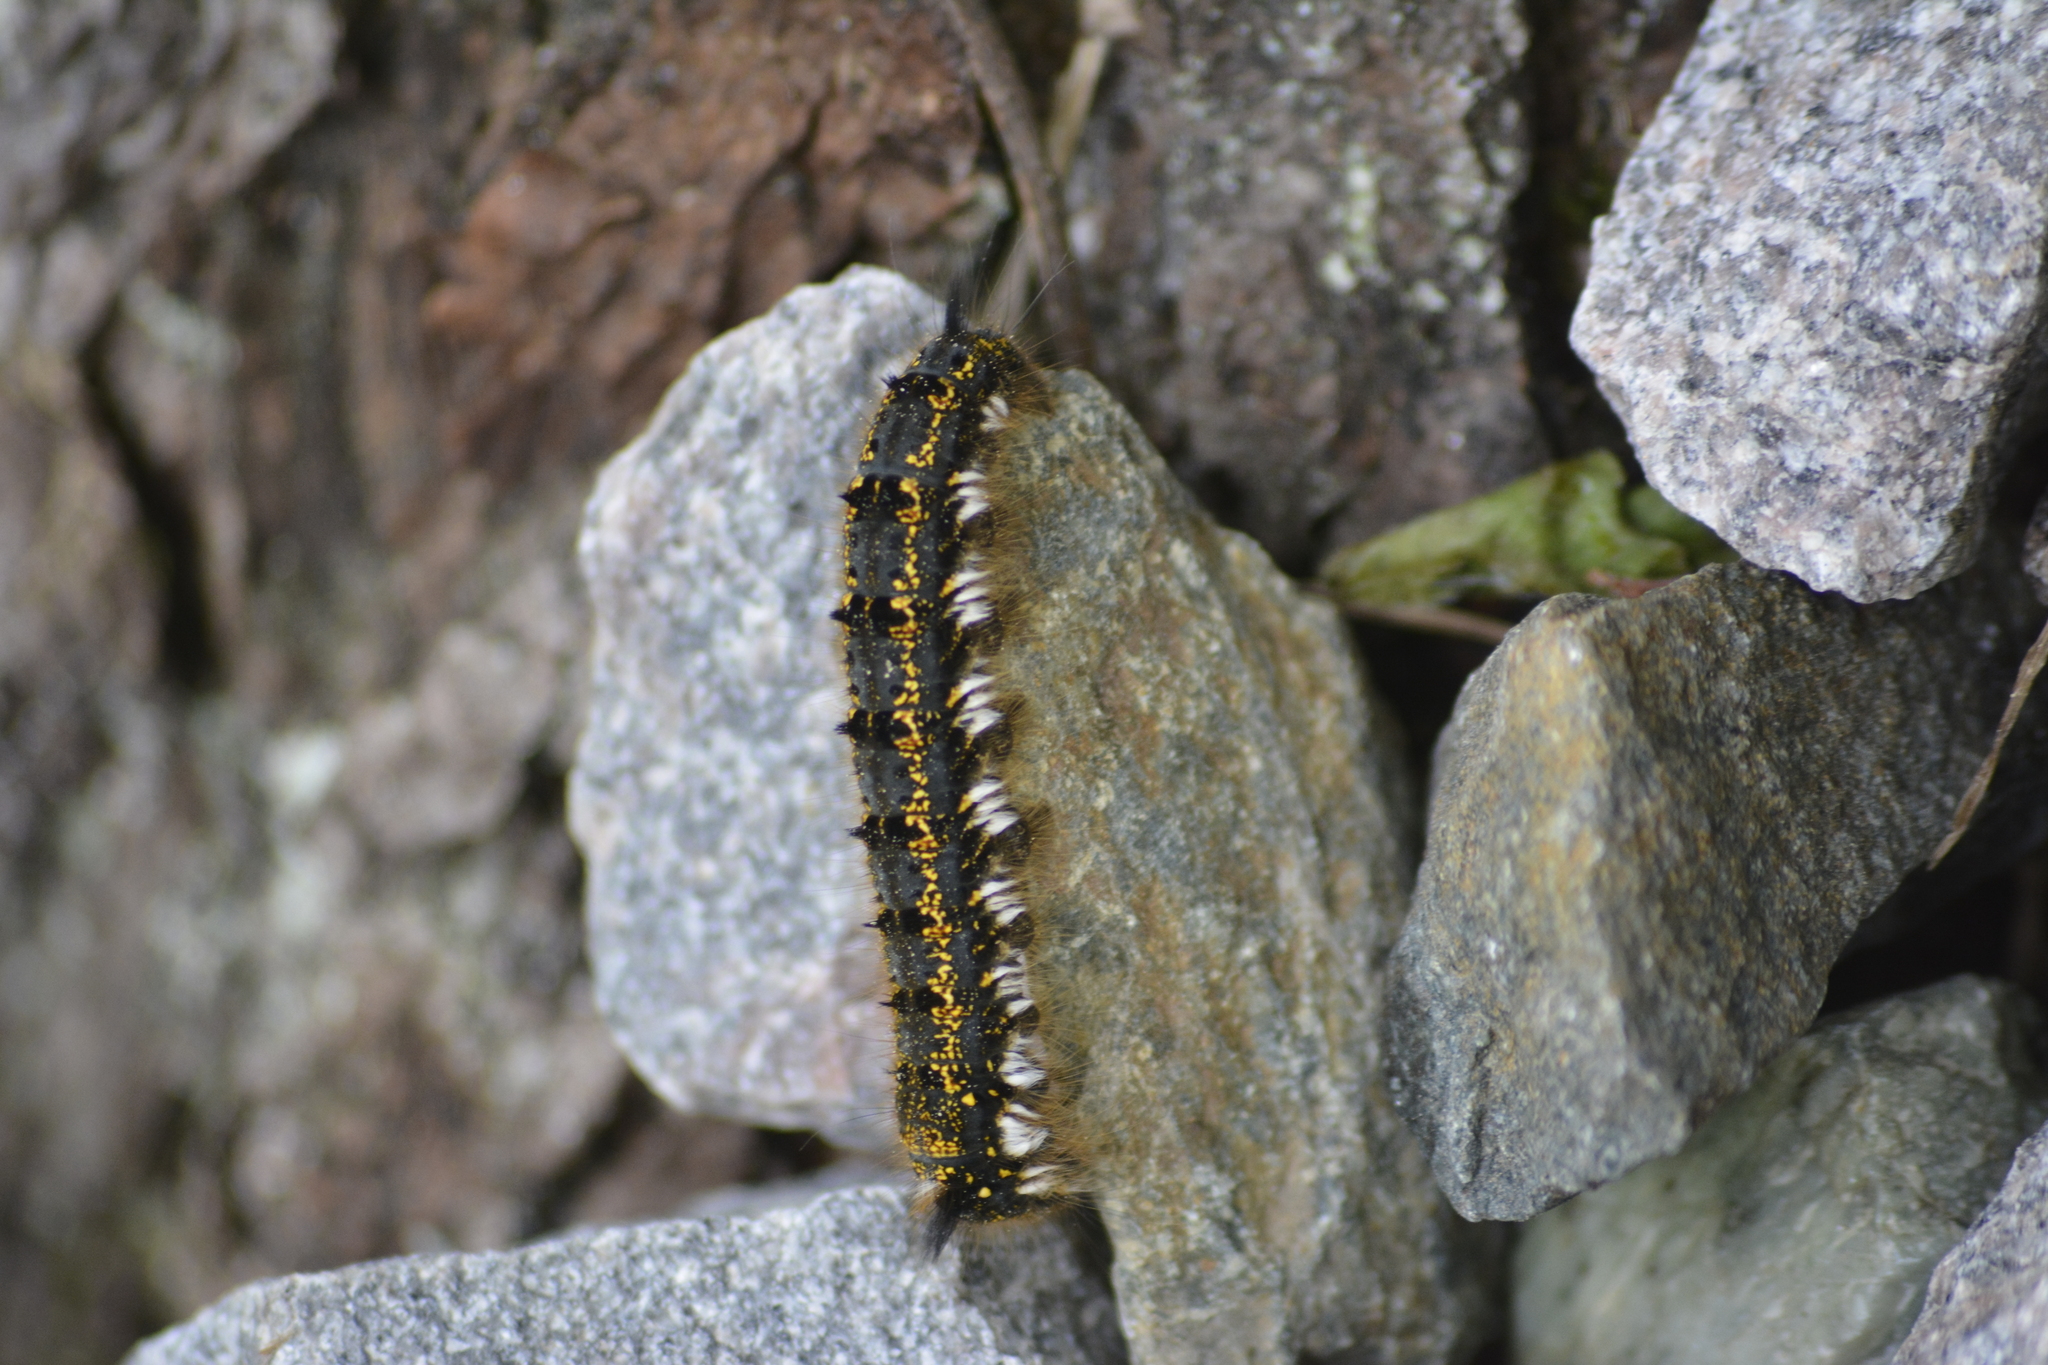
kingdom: Animalia
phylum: Arthropoda
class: Insecta
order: Lepidoptera
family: Lasiocampidae
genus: Euthrix
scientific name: Euthrix potatoria
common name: Drinker
